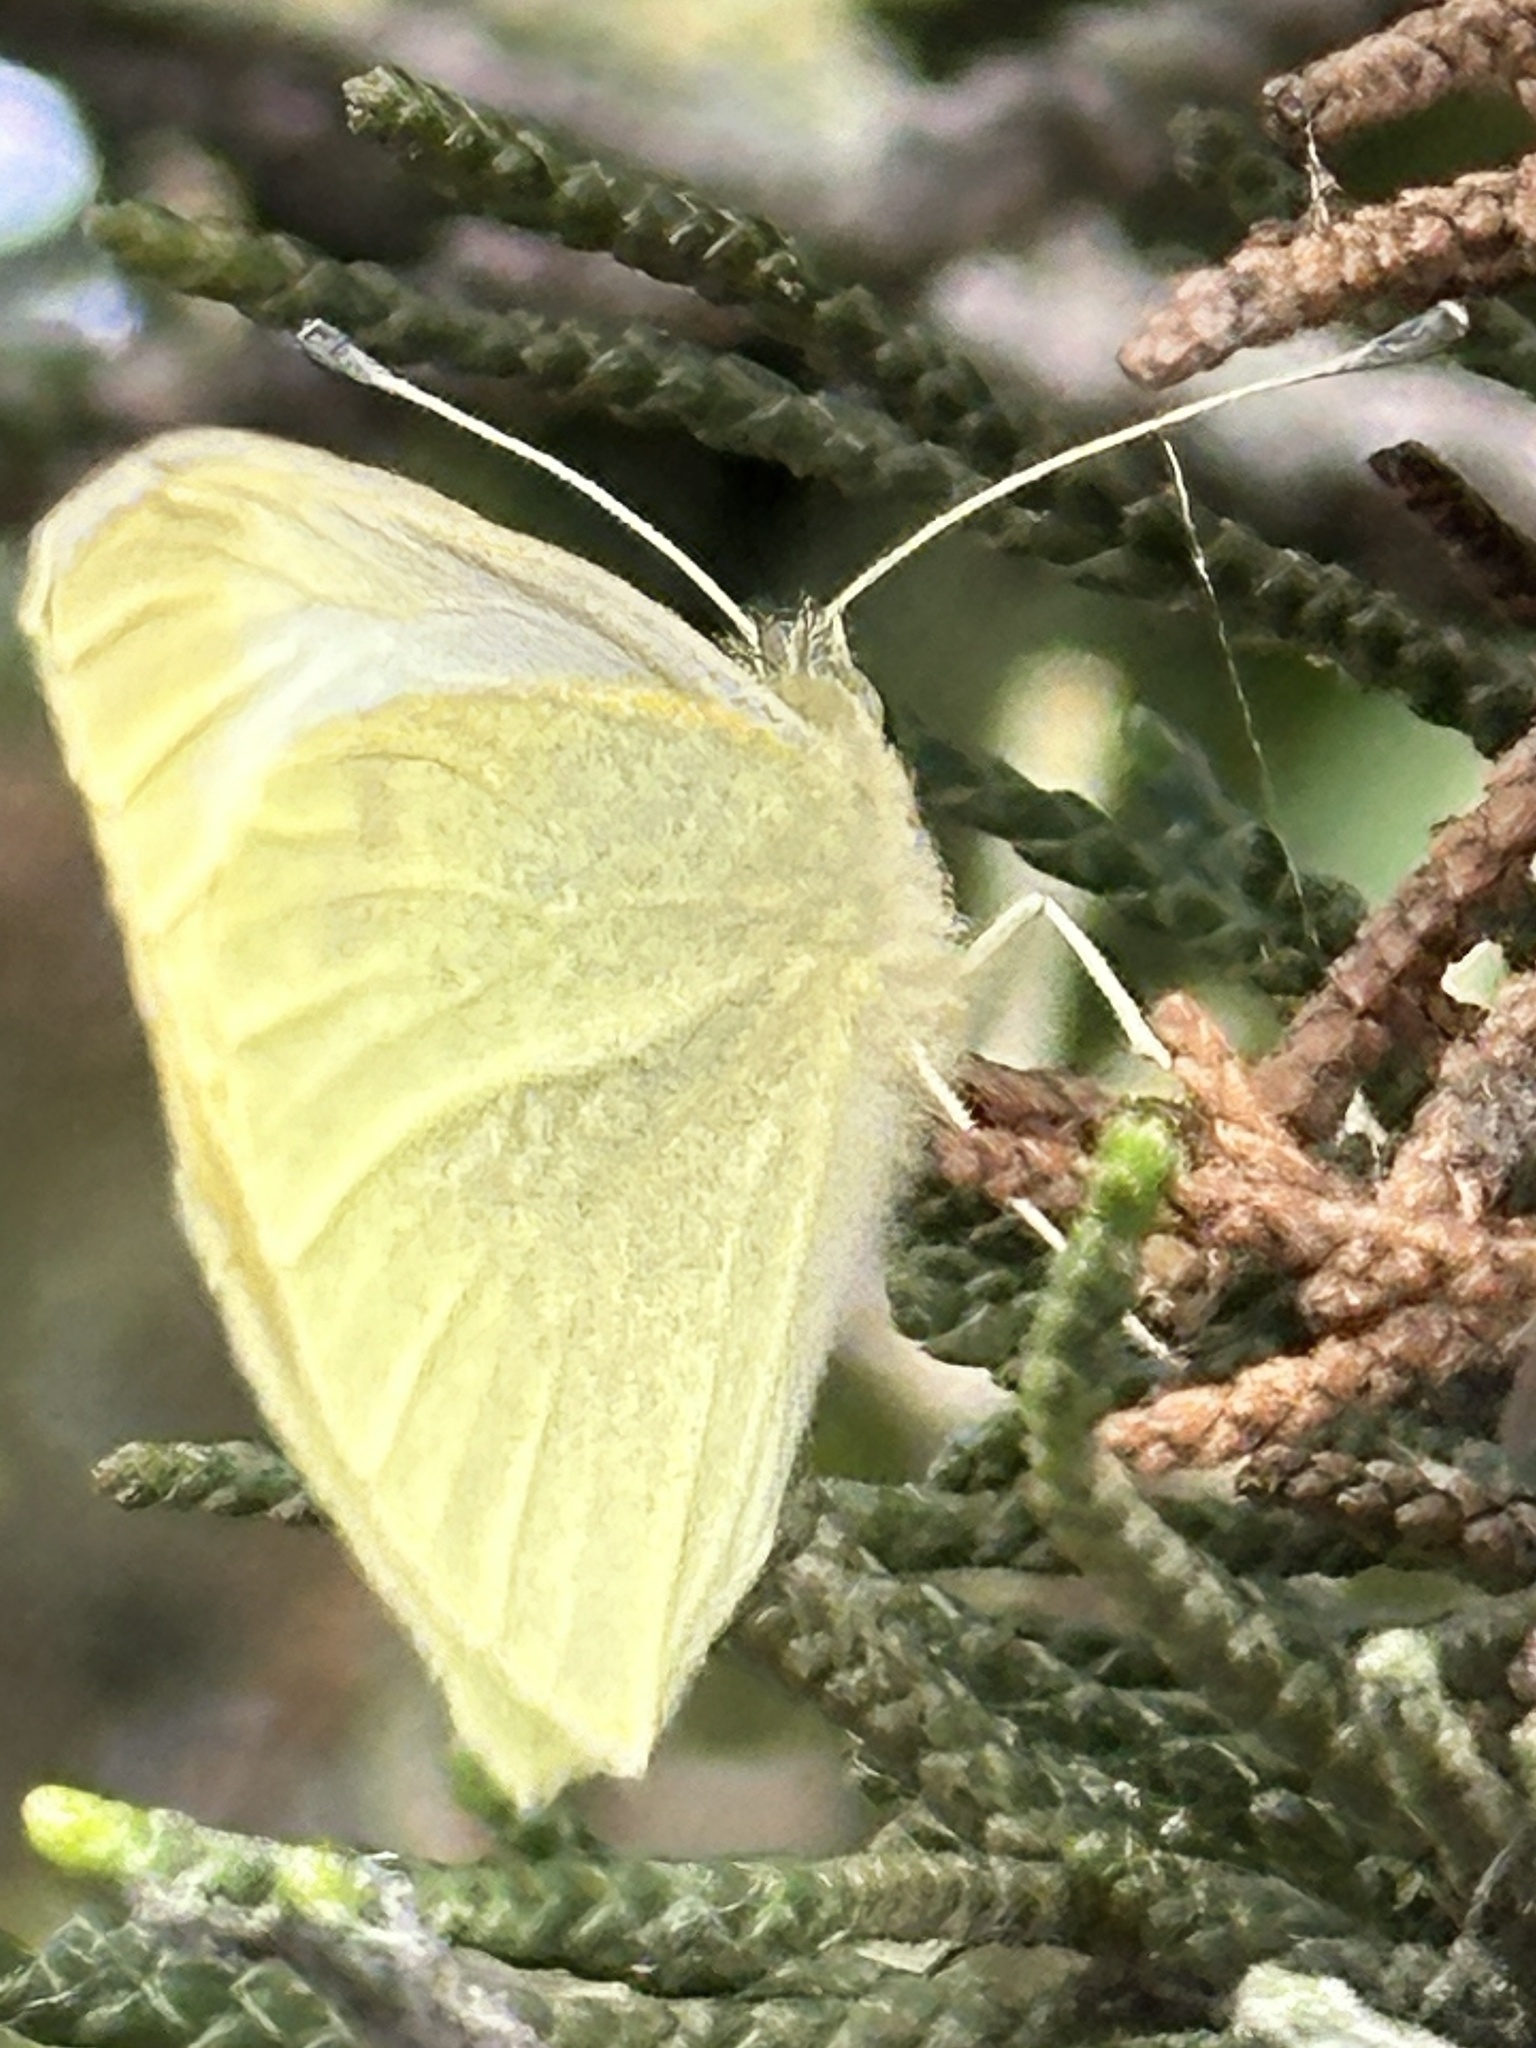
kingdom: Animalia
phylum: Arthropoda
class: Insecta
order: Lepidoptera
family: Pieridae
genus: Pieris
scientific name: Pieris rapae
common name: Small white
